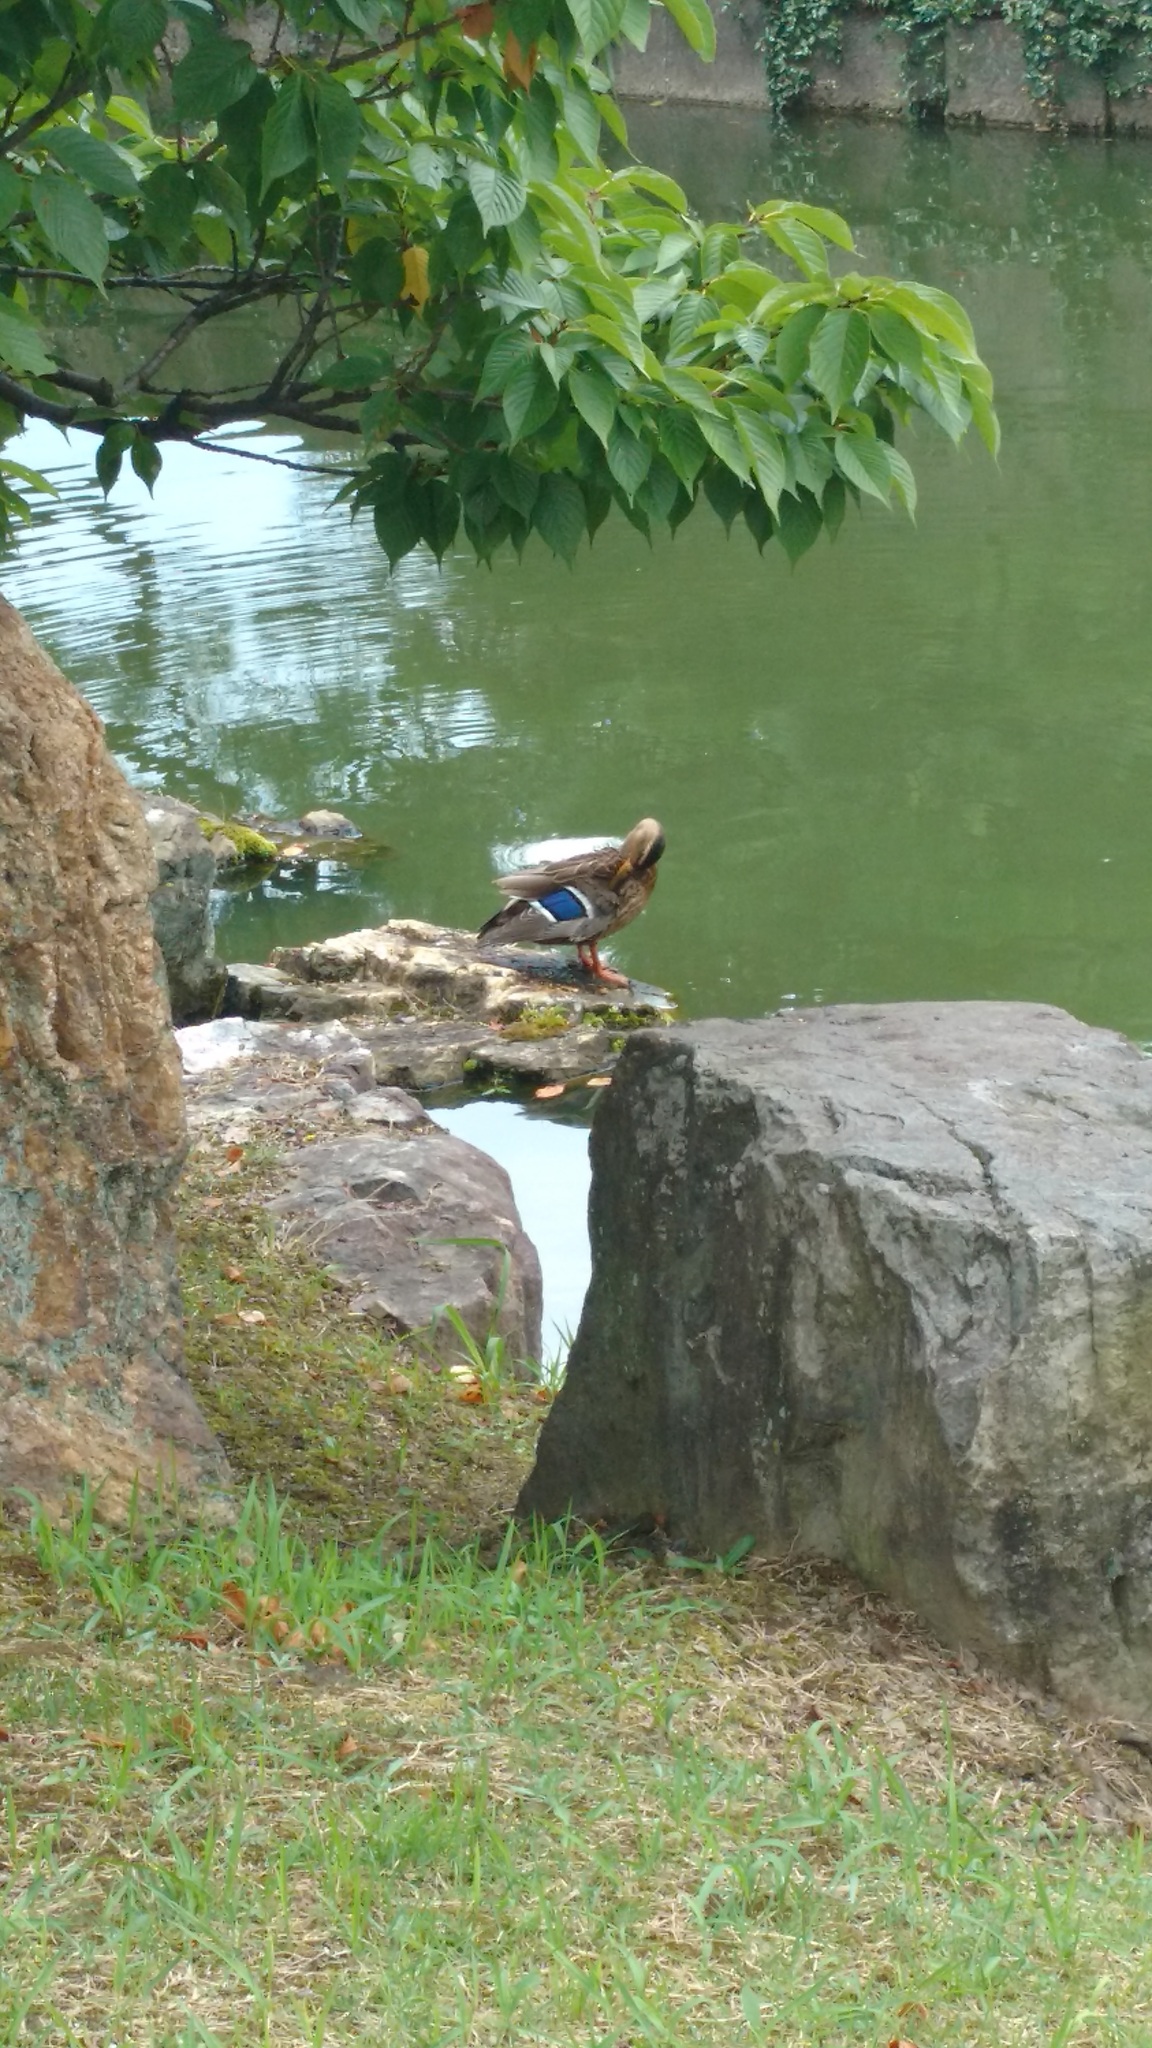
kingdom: Animalia
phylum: Chordata
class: Aves
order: Anseriformes
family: Anatidae
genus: Anas
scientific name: Anas zonorhyncha
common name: Eastern spot-billed duck
